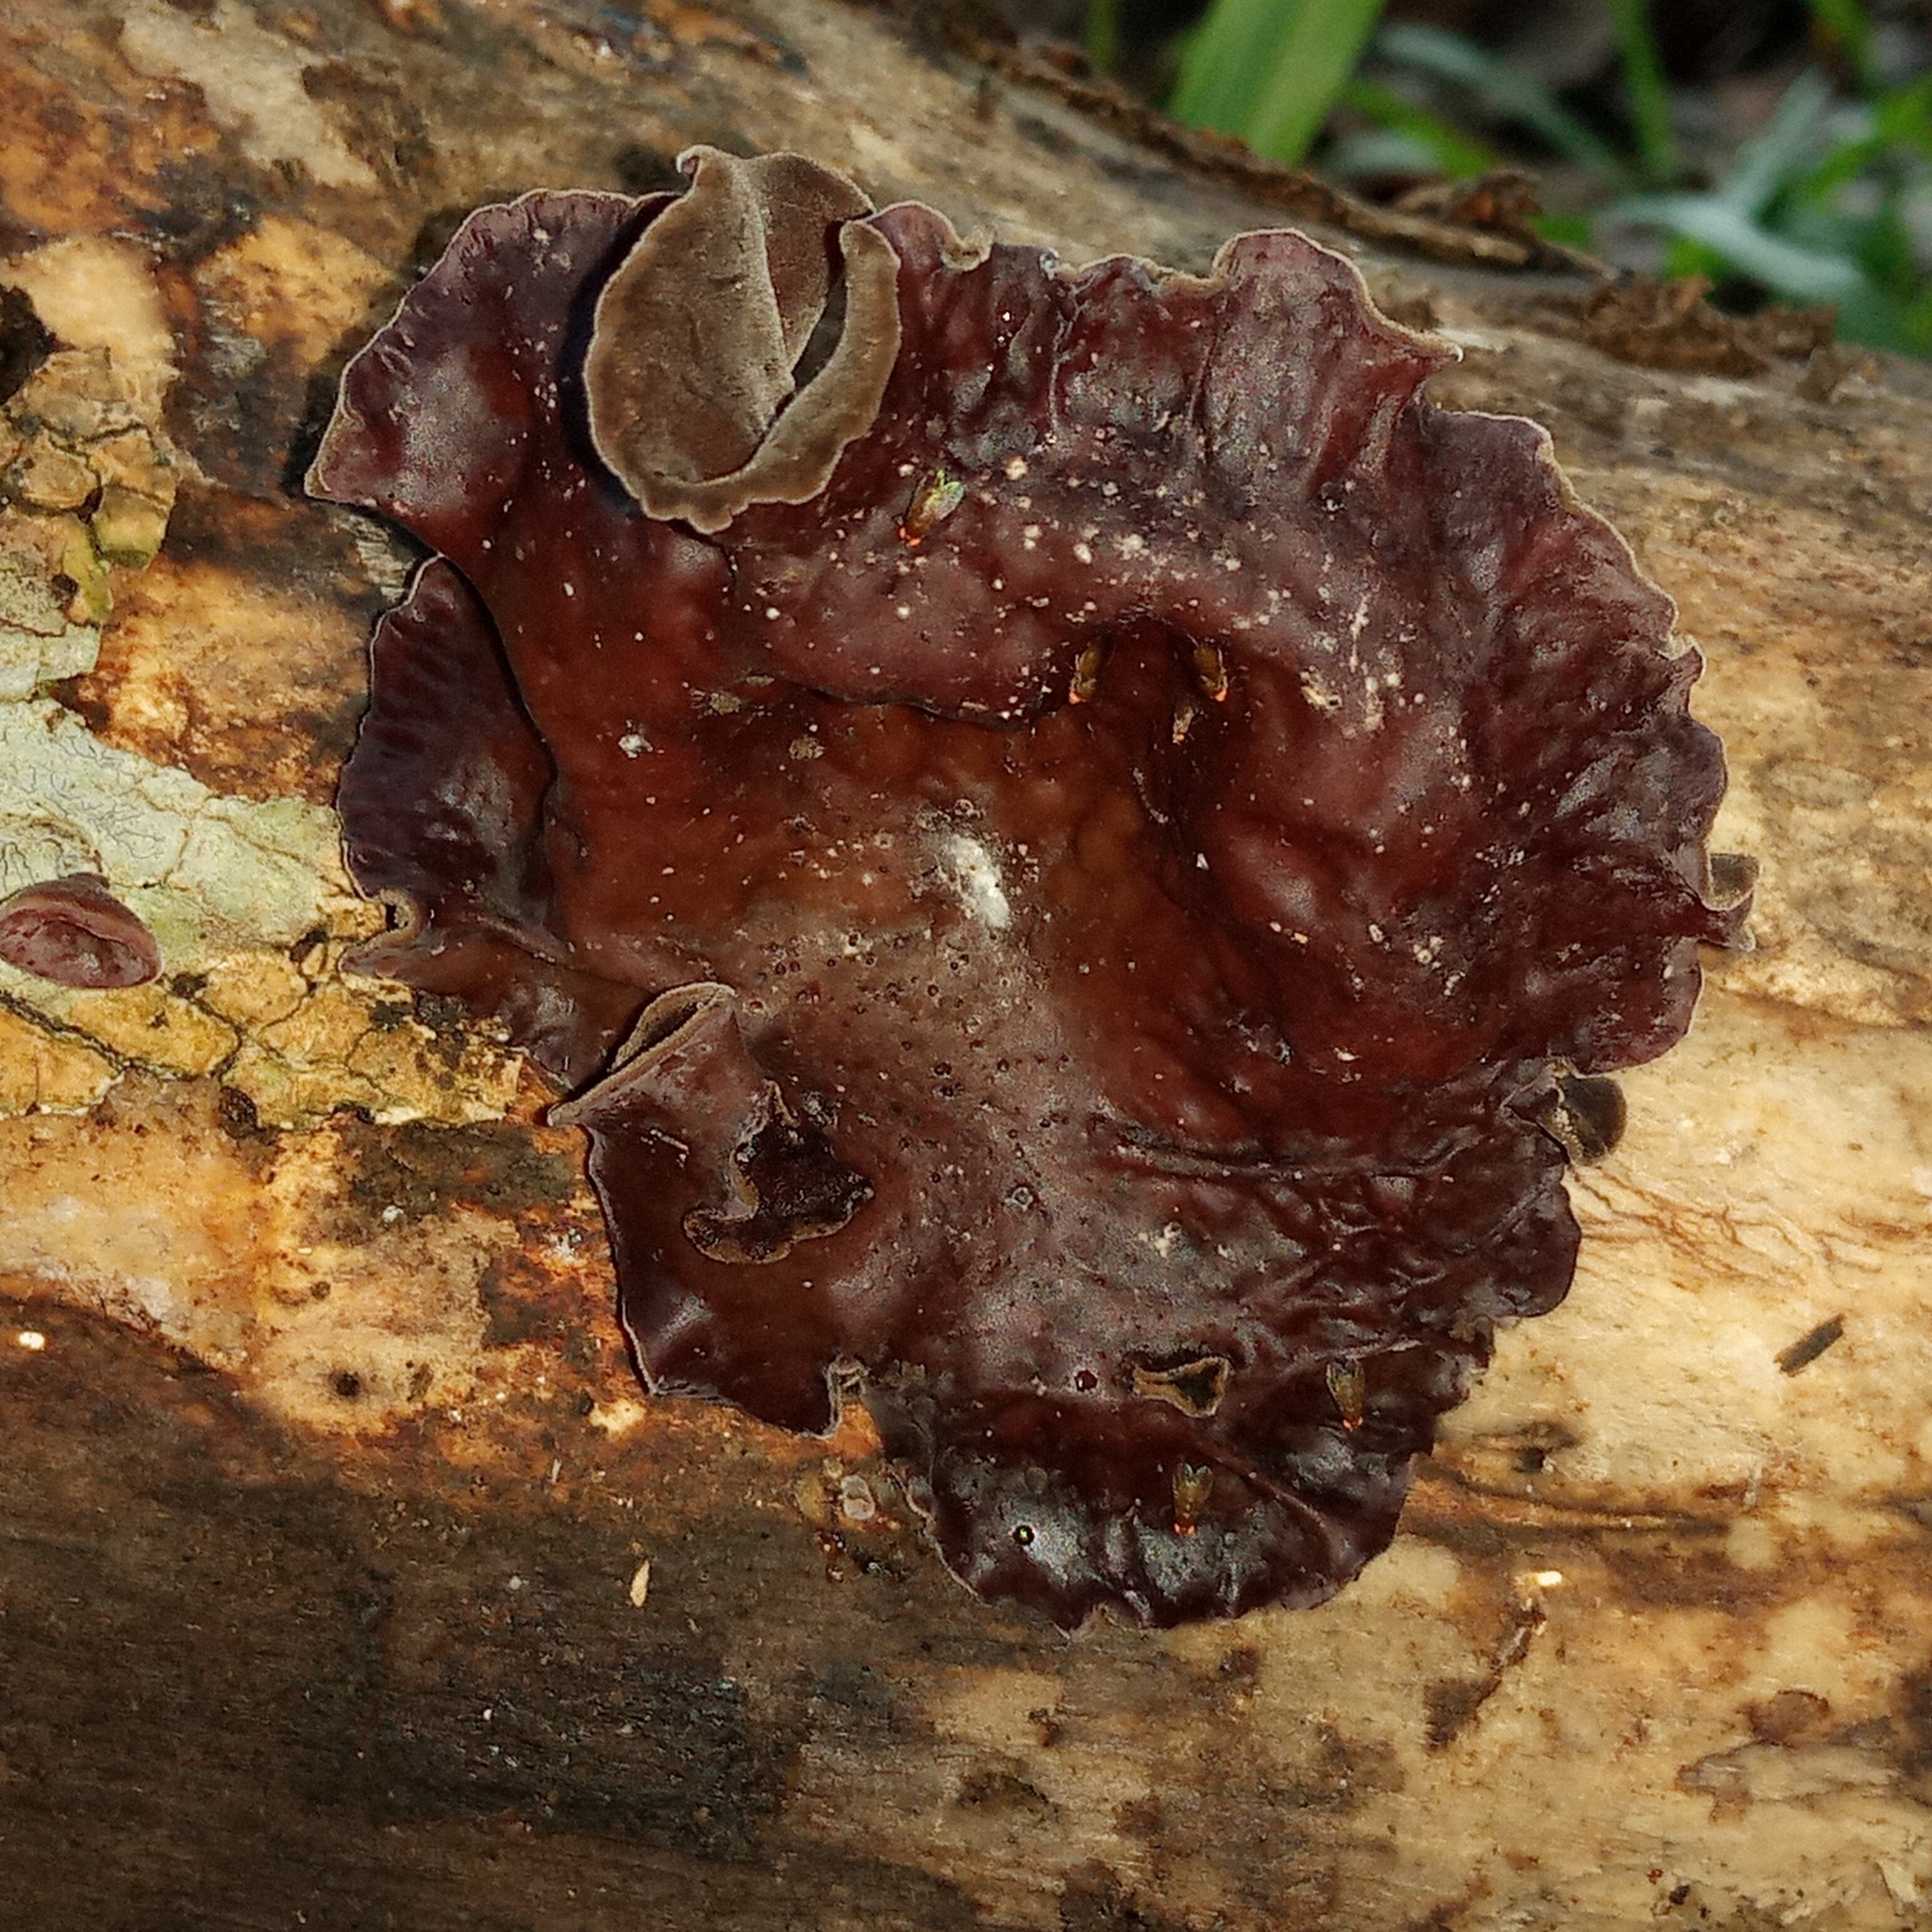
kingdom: Fungi
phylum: Basidiomycota
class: Agaricomycetes
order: Auriculariales
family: Auriculariaceae
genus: Auricularia
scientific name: Auricularia nigricans
